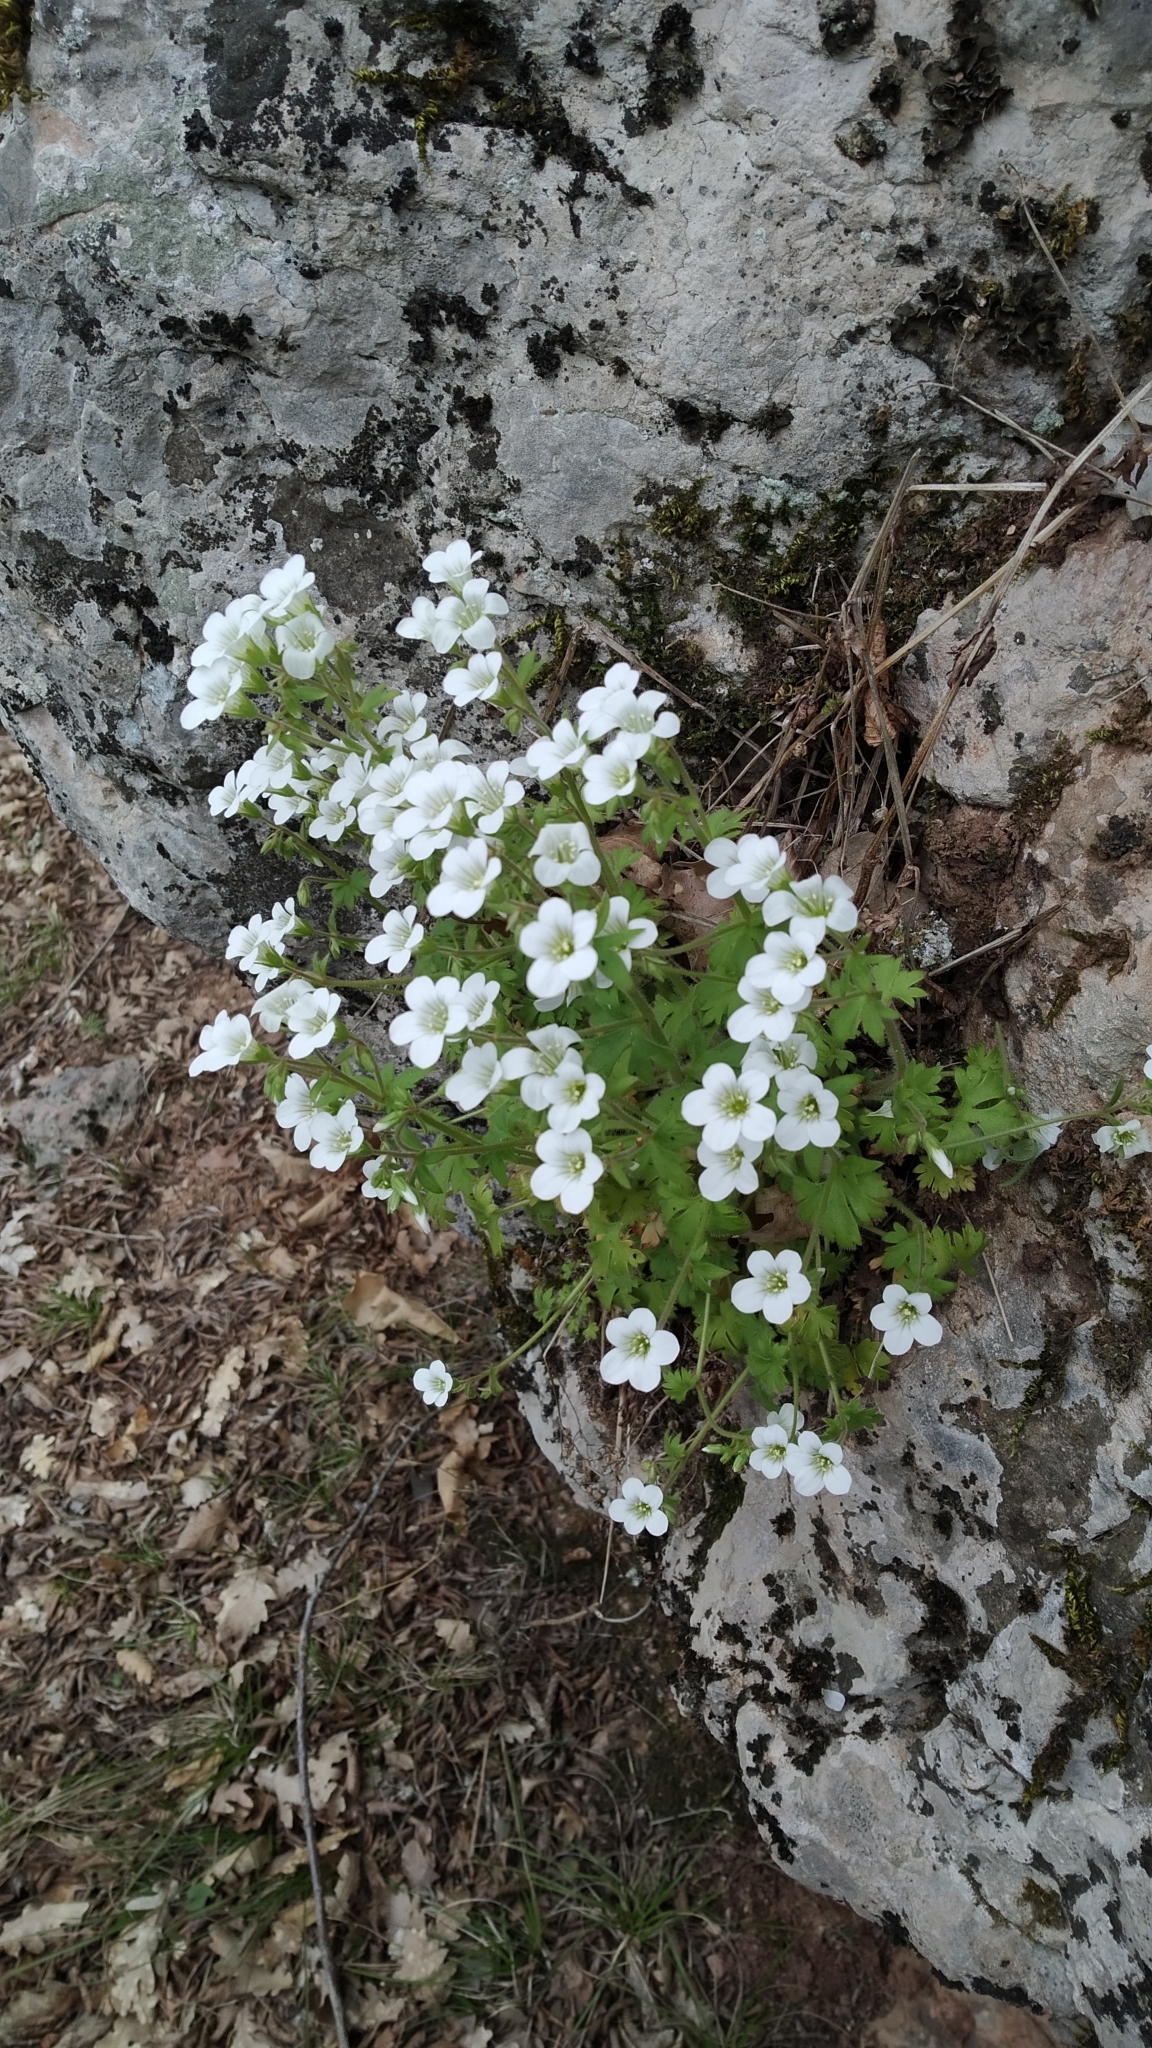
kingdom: Plantae
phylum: Tracheophyta
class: Magnoliopsida
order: Saxifragales
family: Saxifragaceae
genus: Saxifraga
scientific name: Saxifraga irrigua
